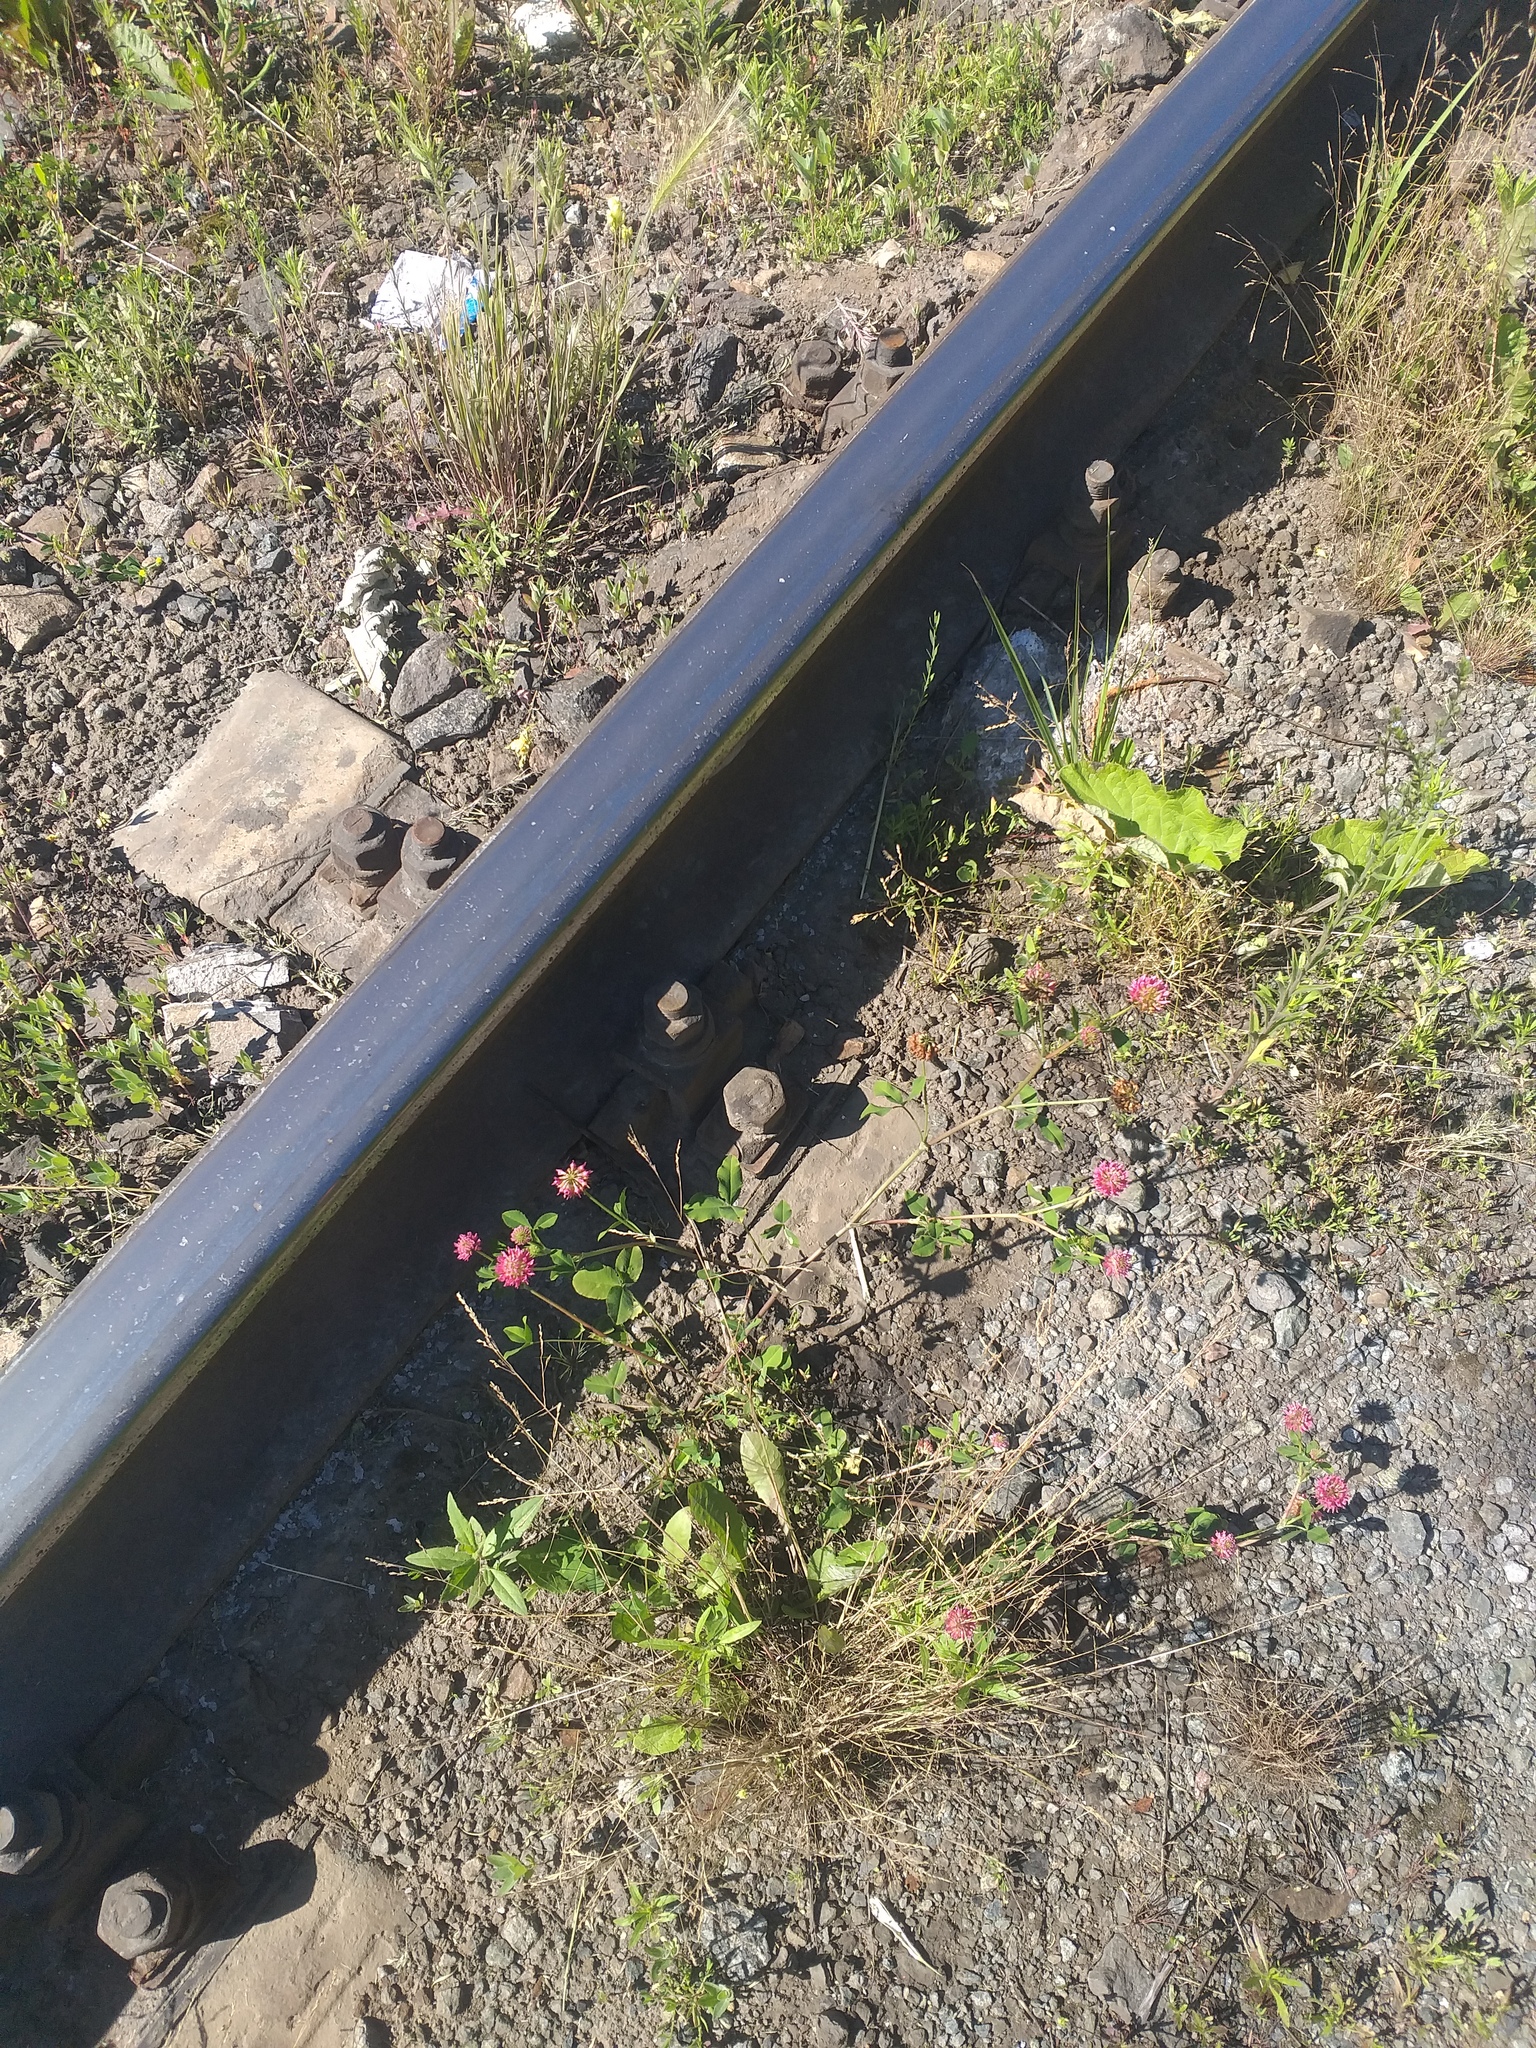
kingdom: Plantae
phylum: Tracheophyta
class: Magnoliopsida
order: Fabales
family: Fabaceae
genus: Trifolium
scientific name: Trifolium hybridum
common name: Alsike clover
